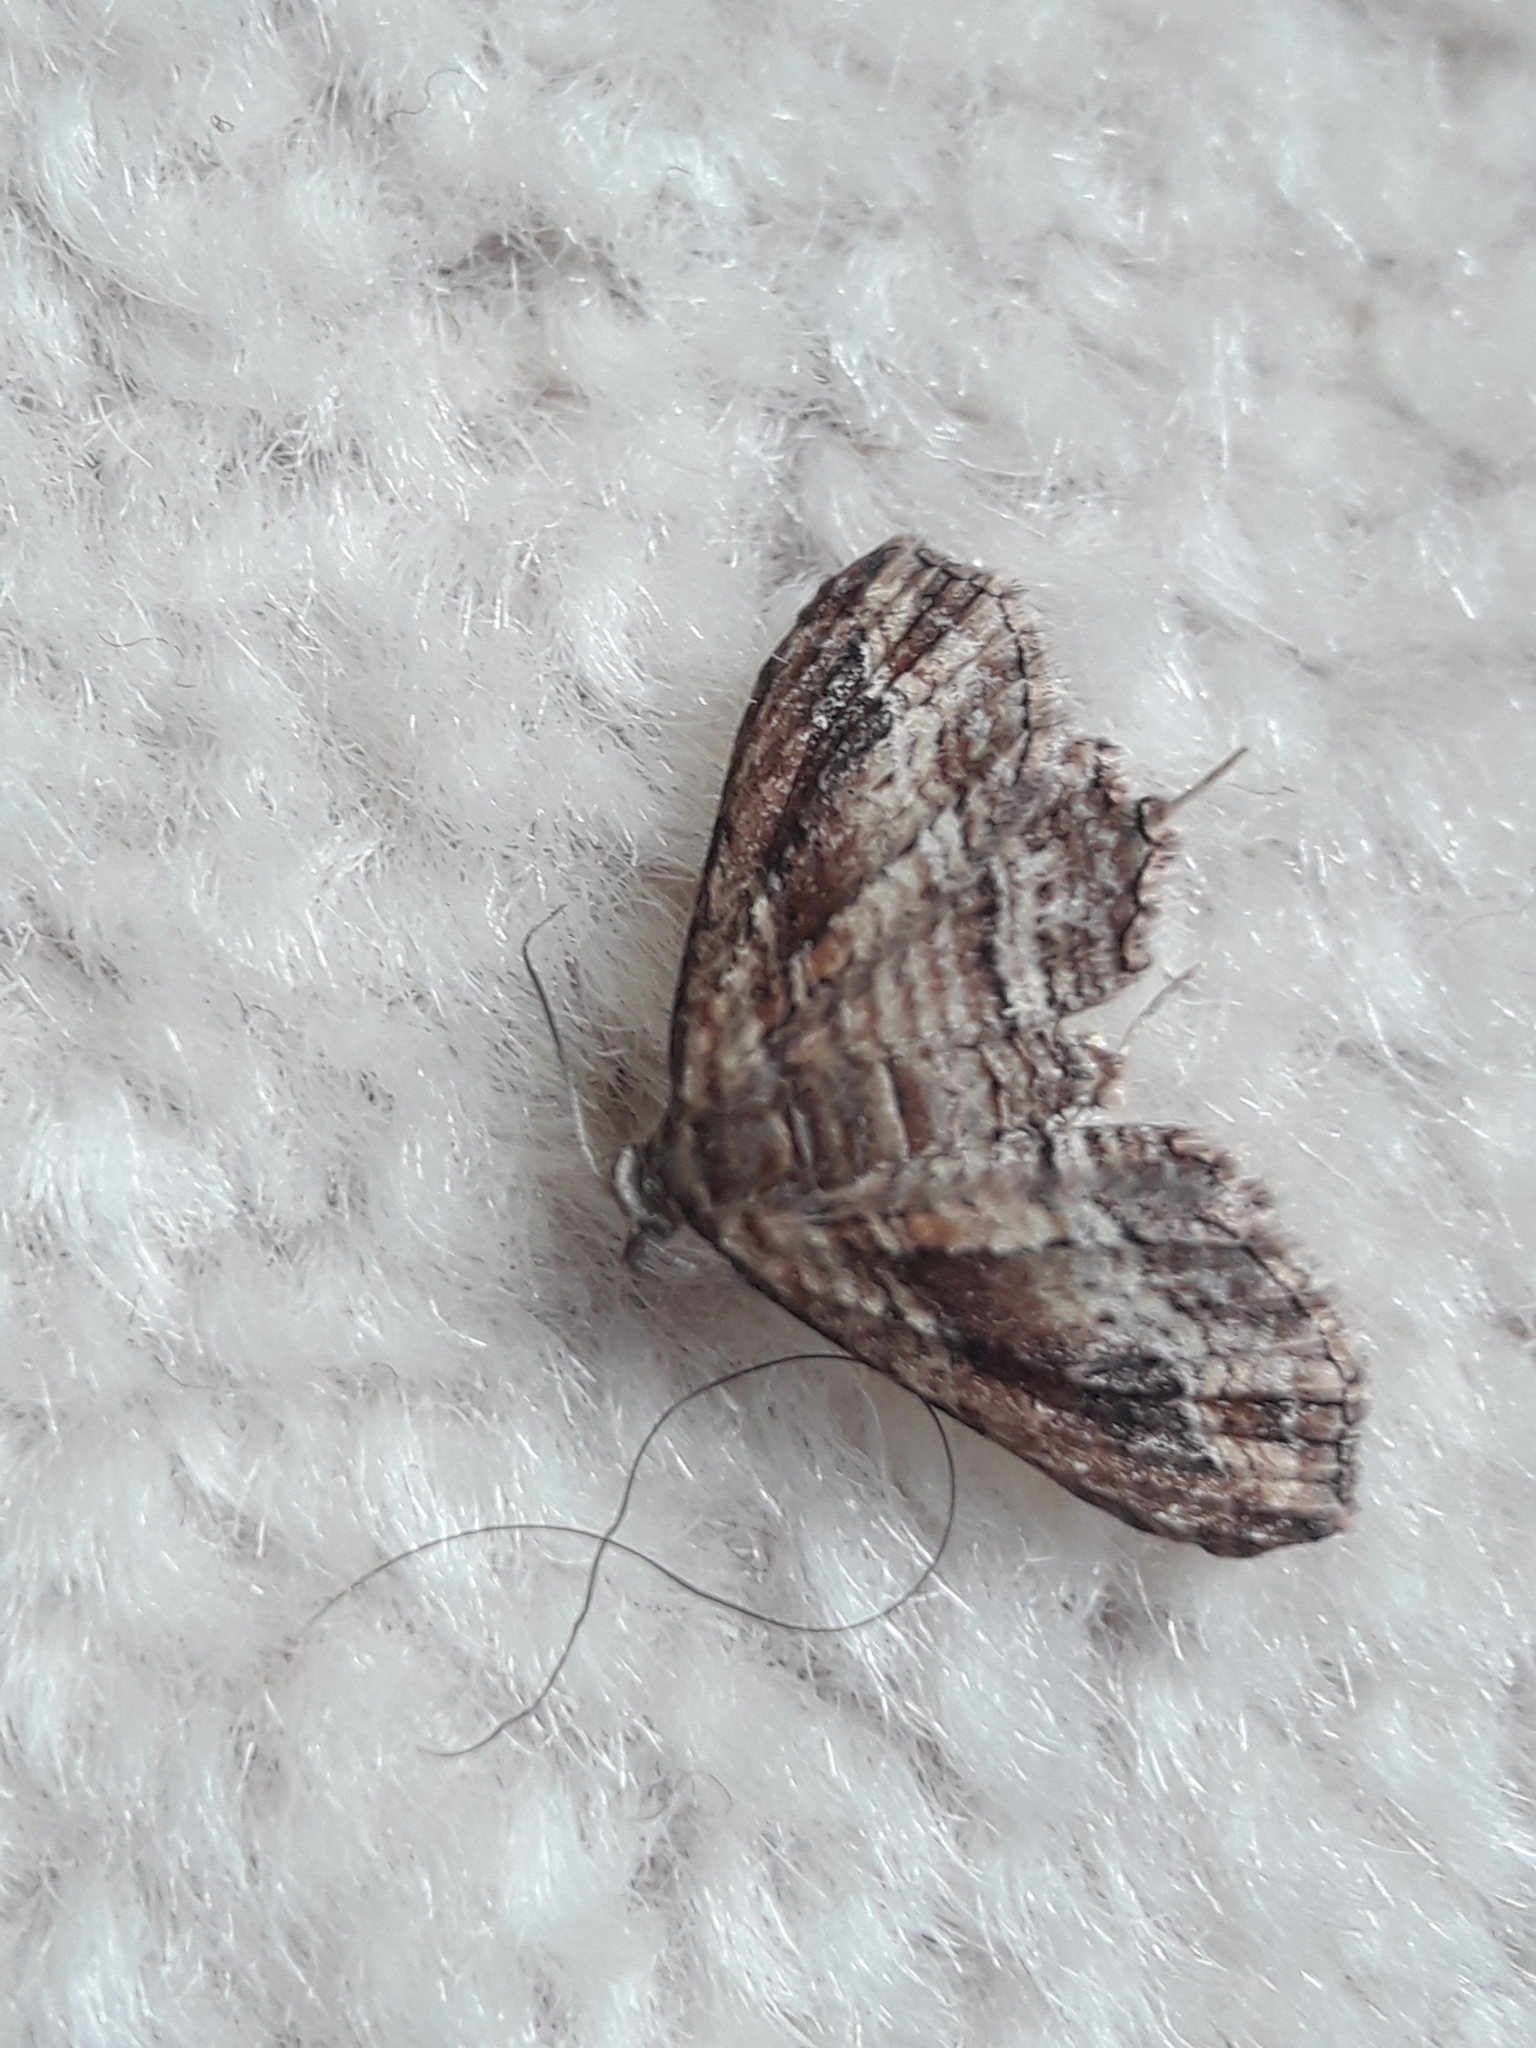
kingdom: Animalia
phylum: Arthropoda
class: Insecta
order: Lepidoptera
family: Geometridae
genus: Chloroclystis
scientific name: Chloroclystis filata
